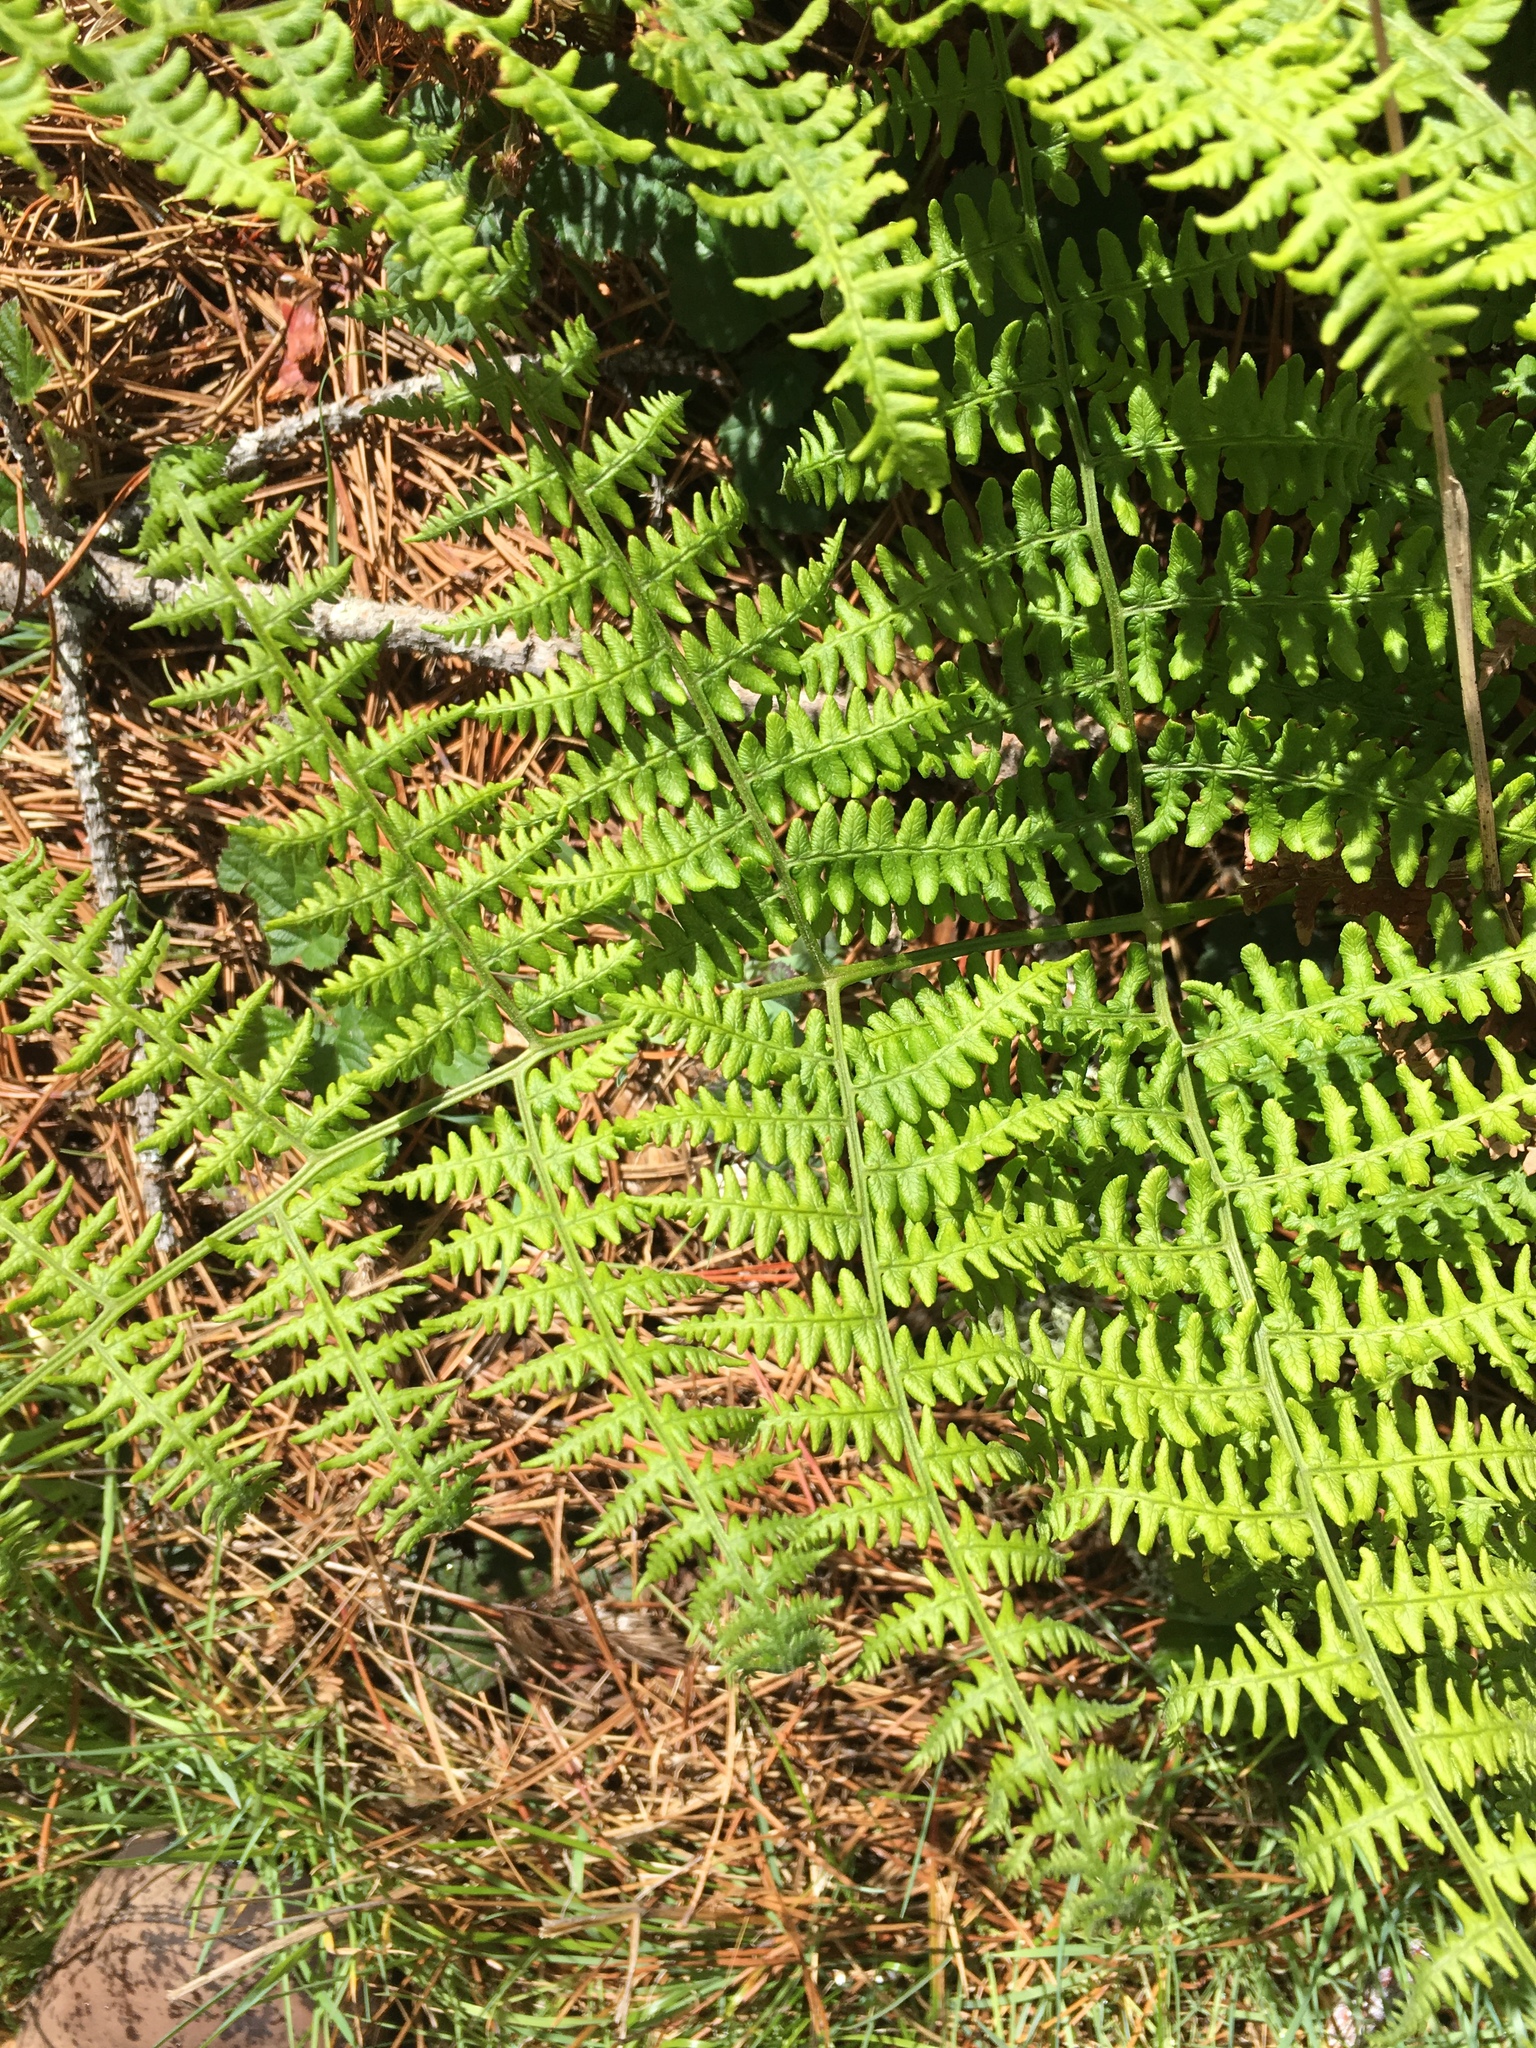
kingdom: Plantae
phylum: Tracheophyta
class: Polypodiopsida
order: Polypodiales
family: Dennstaedtiaceae
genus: Pteridium
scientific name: Pteridium aquilinum
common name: Bracken
